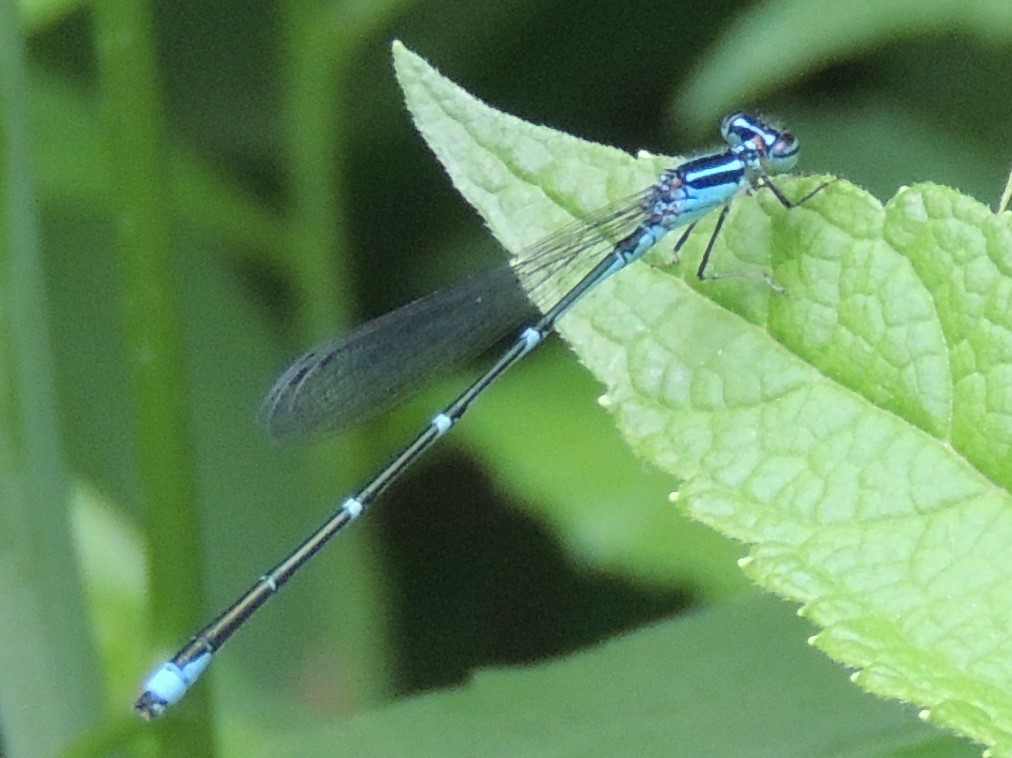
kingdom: Animalia
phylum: Arthropoda
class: Insecta
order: Odonata
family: Coenagrionidae
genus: Enallagma
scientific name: Enallagma exsulans
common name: Stream bluet
